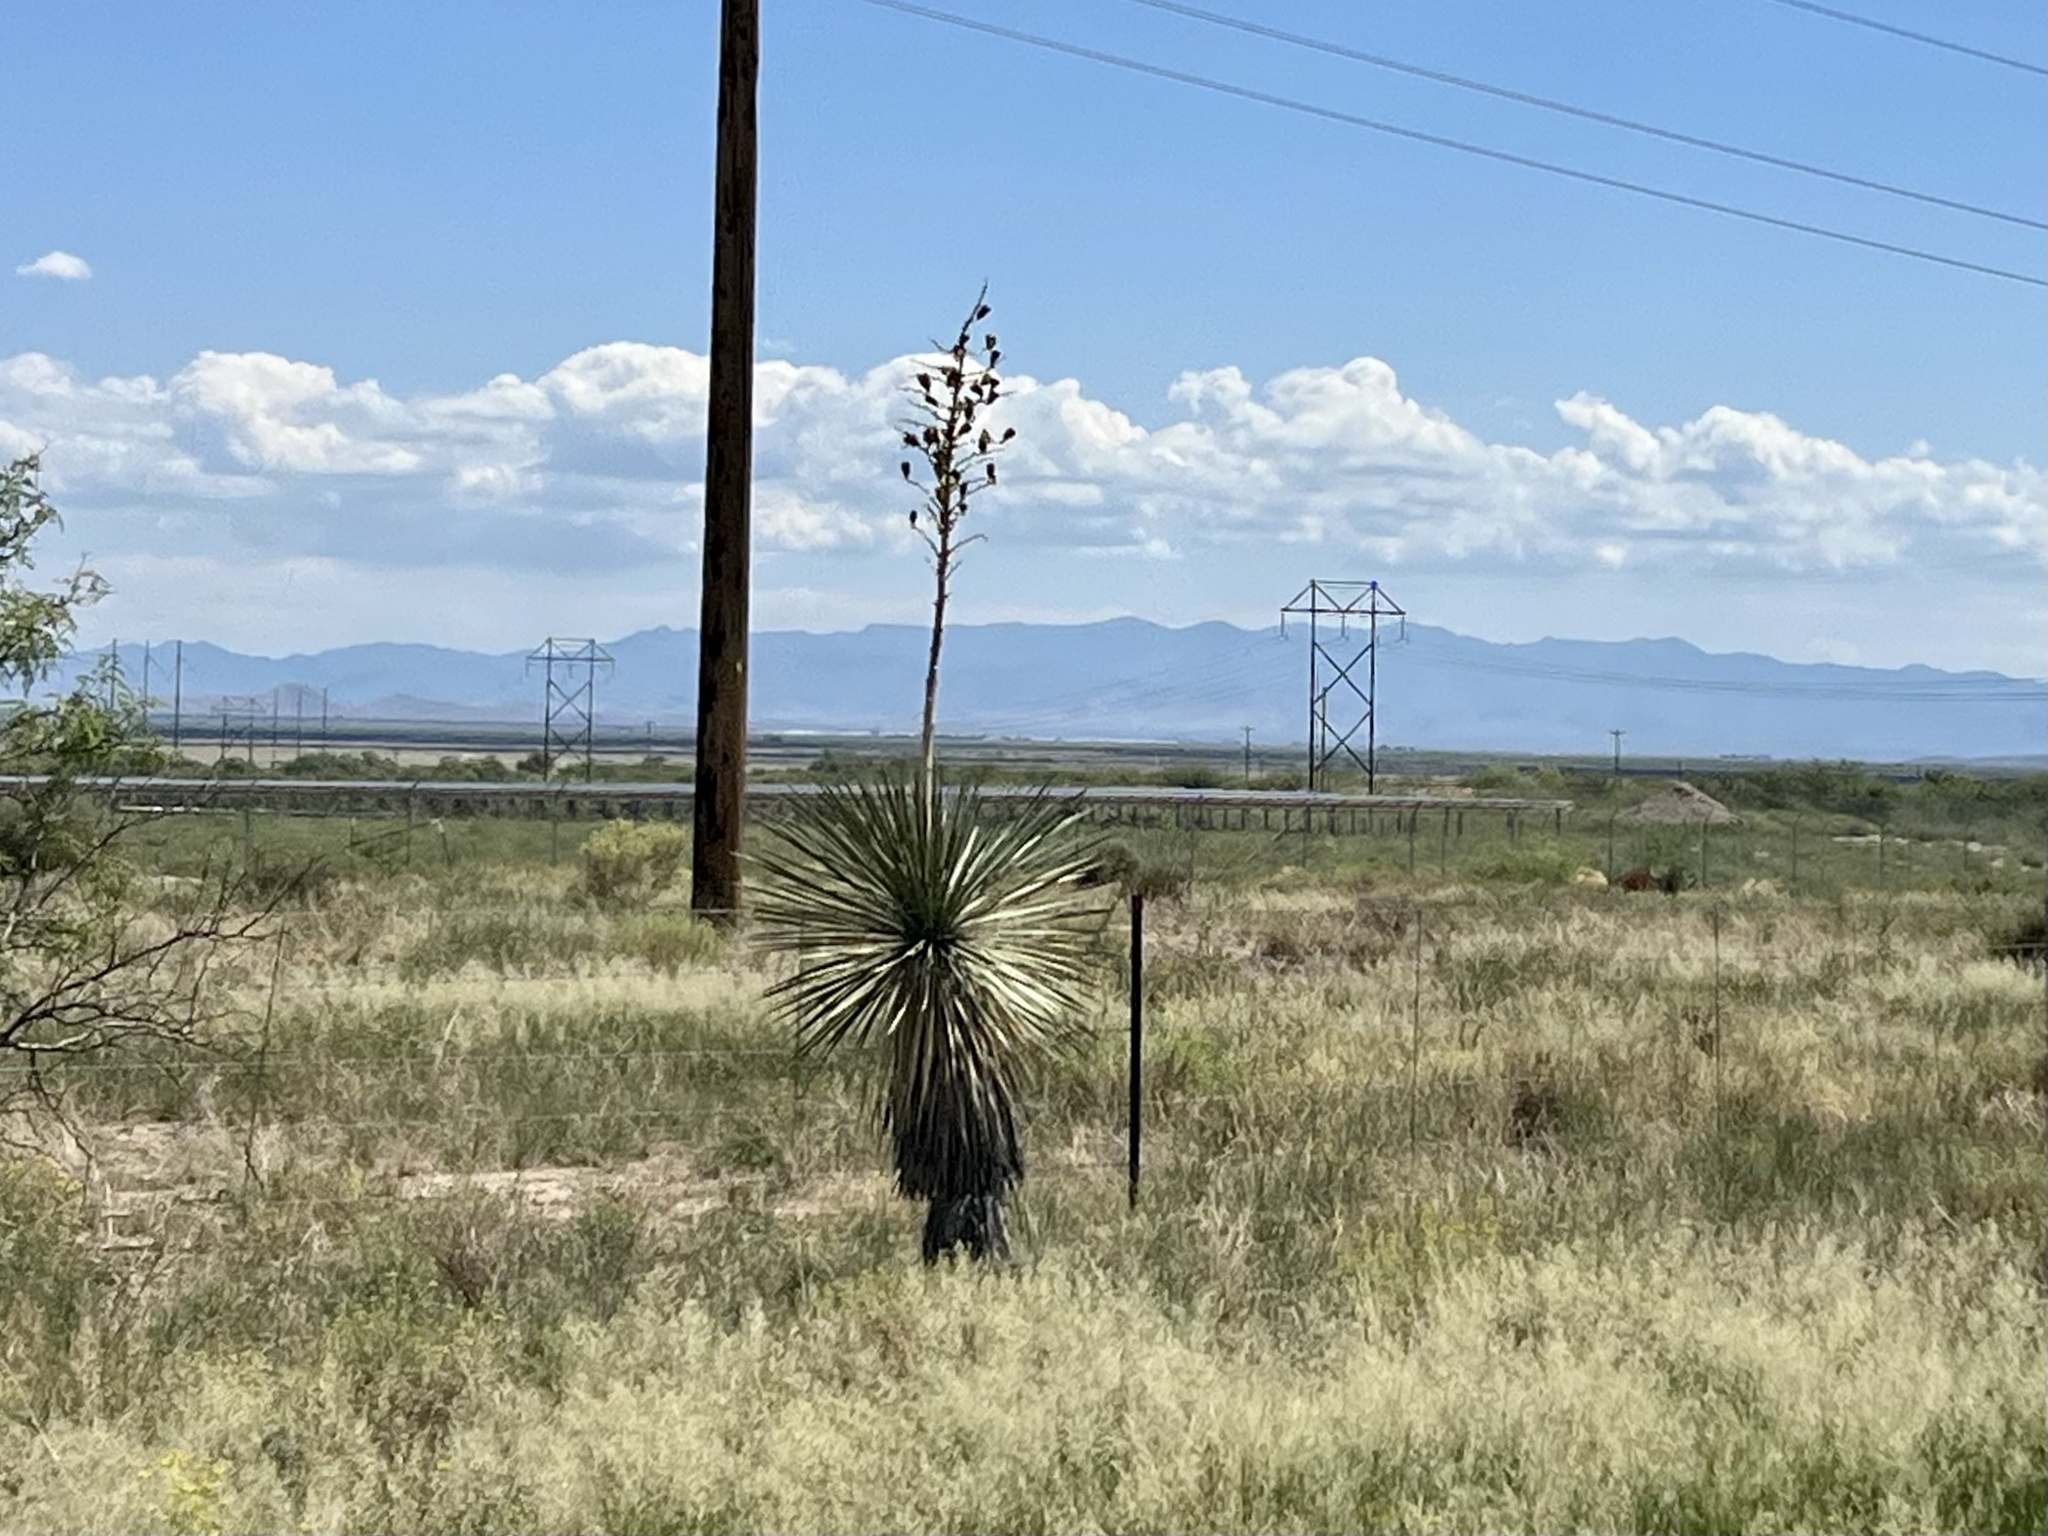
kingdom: Plantae
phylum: Tracheophyta
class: Liliopsida
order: Asparagales
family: Asparagaceae
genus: Yucca
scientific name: Yucca elata
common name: Palmella
